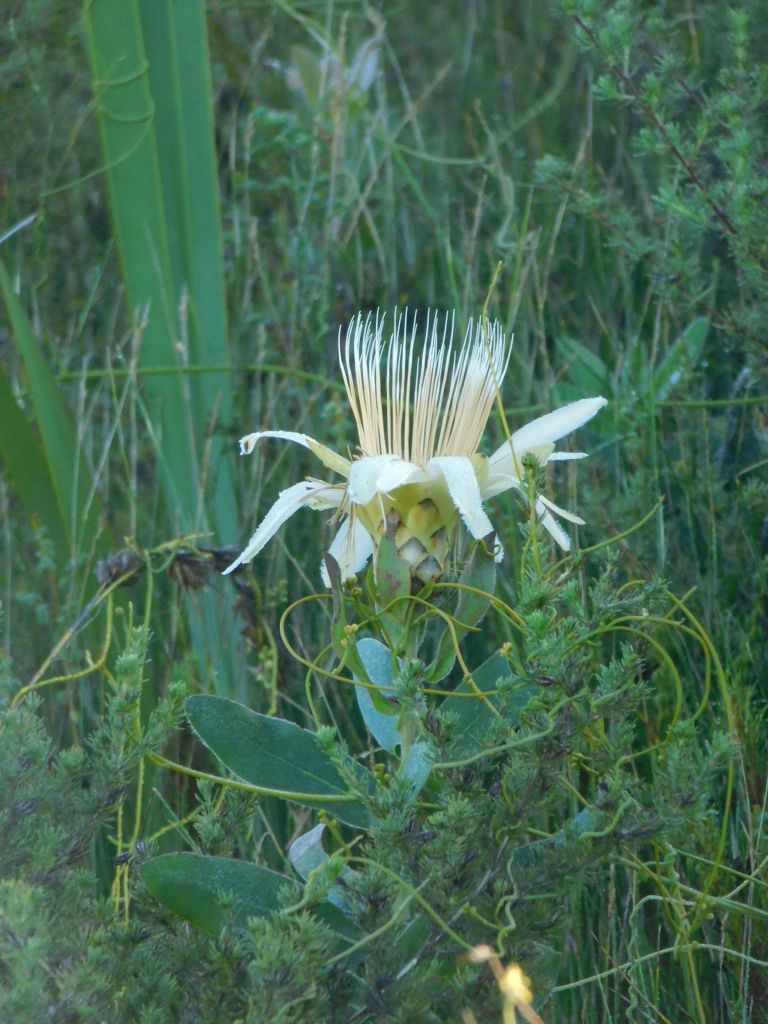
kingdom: Plantae
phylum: Tracheophyta
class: Magnoliopsida
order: Proteales
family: Proteaceae
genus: Protea
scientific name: Protea aurea
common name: Shuttlecock sugarbush
